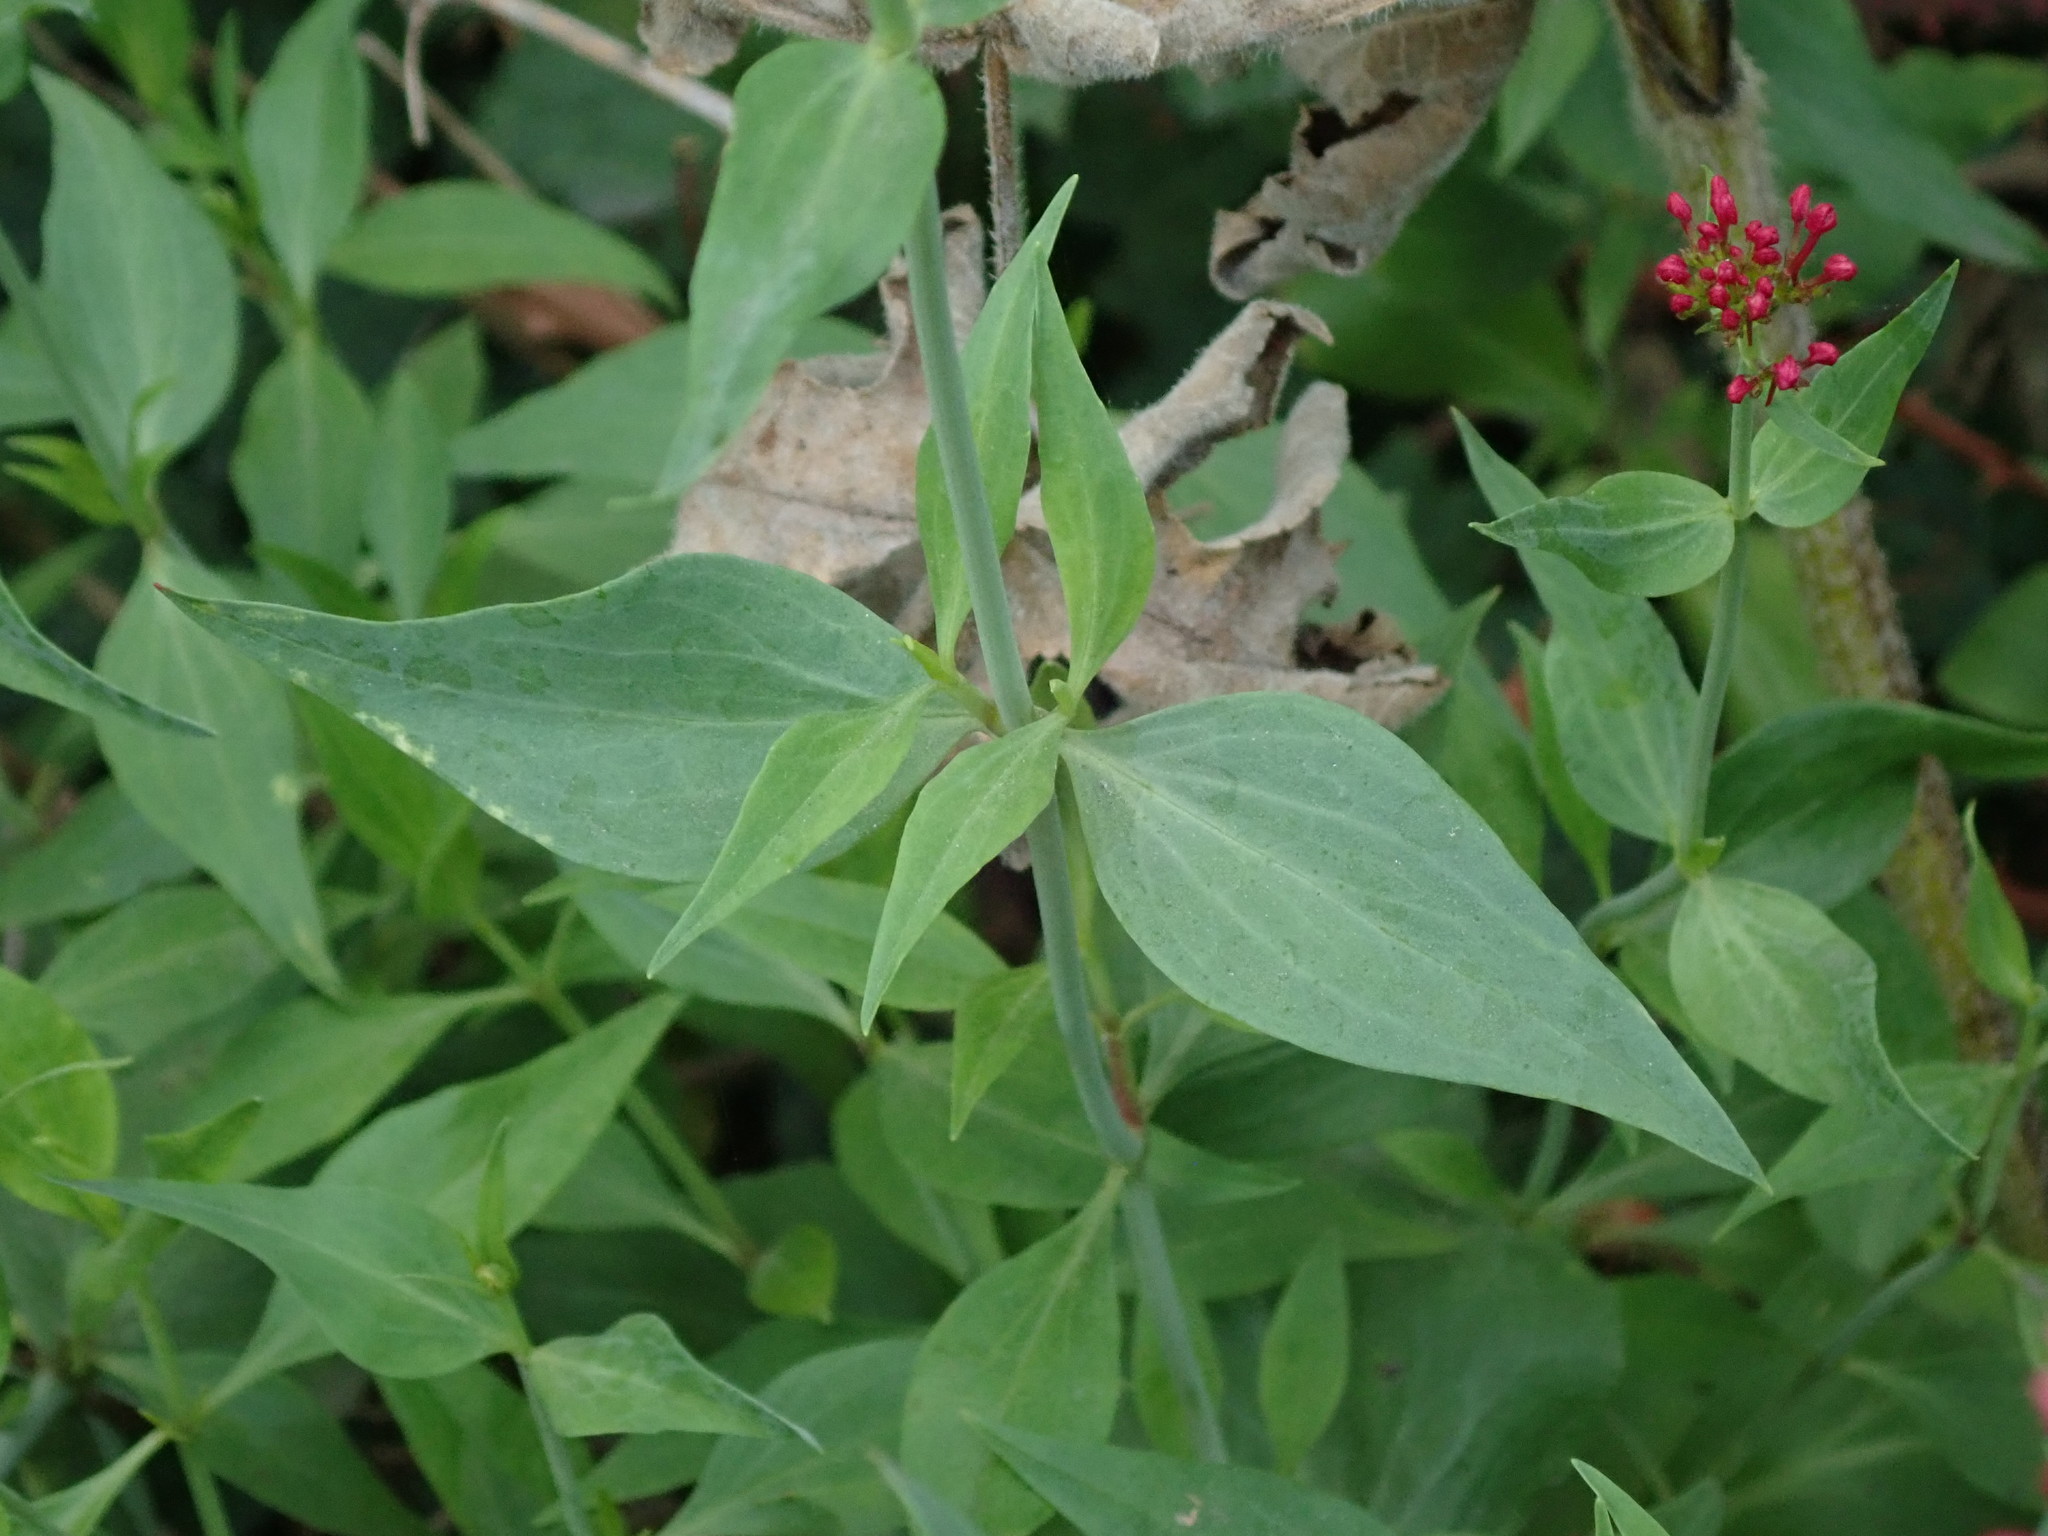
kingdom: Plantae
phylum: Tracheophyta
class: Magnoliopsida
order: Dipsacales
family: Caprifoliaceae
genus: Centranthus
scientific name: Centranthus ruber
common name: Red valerian
